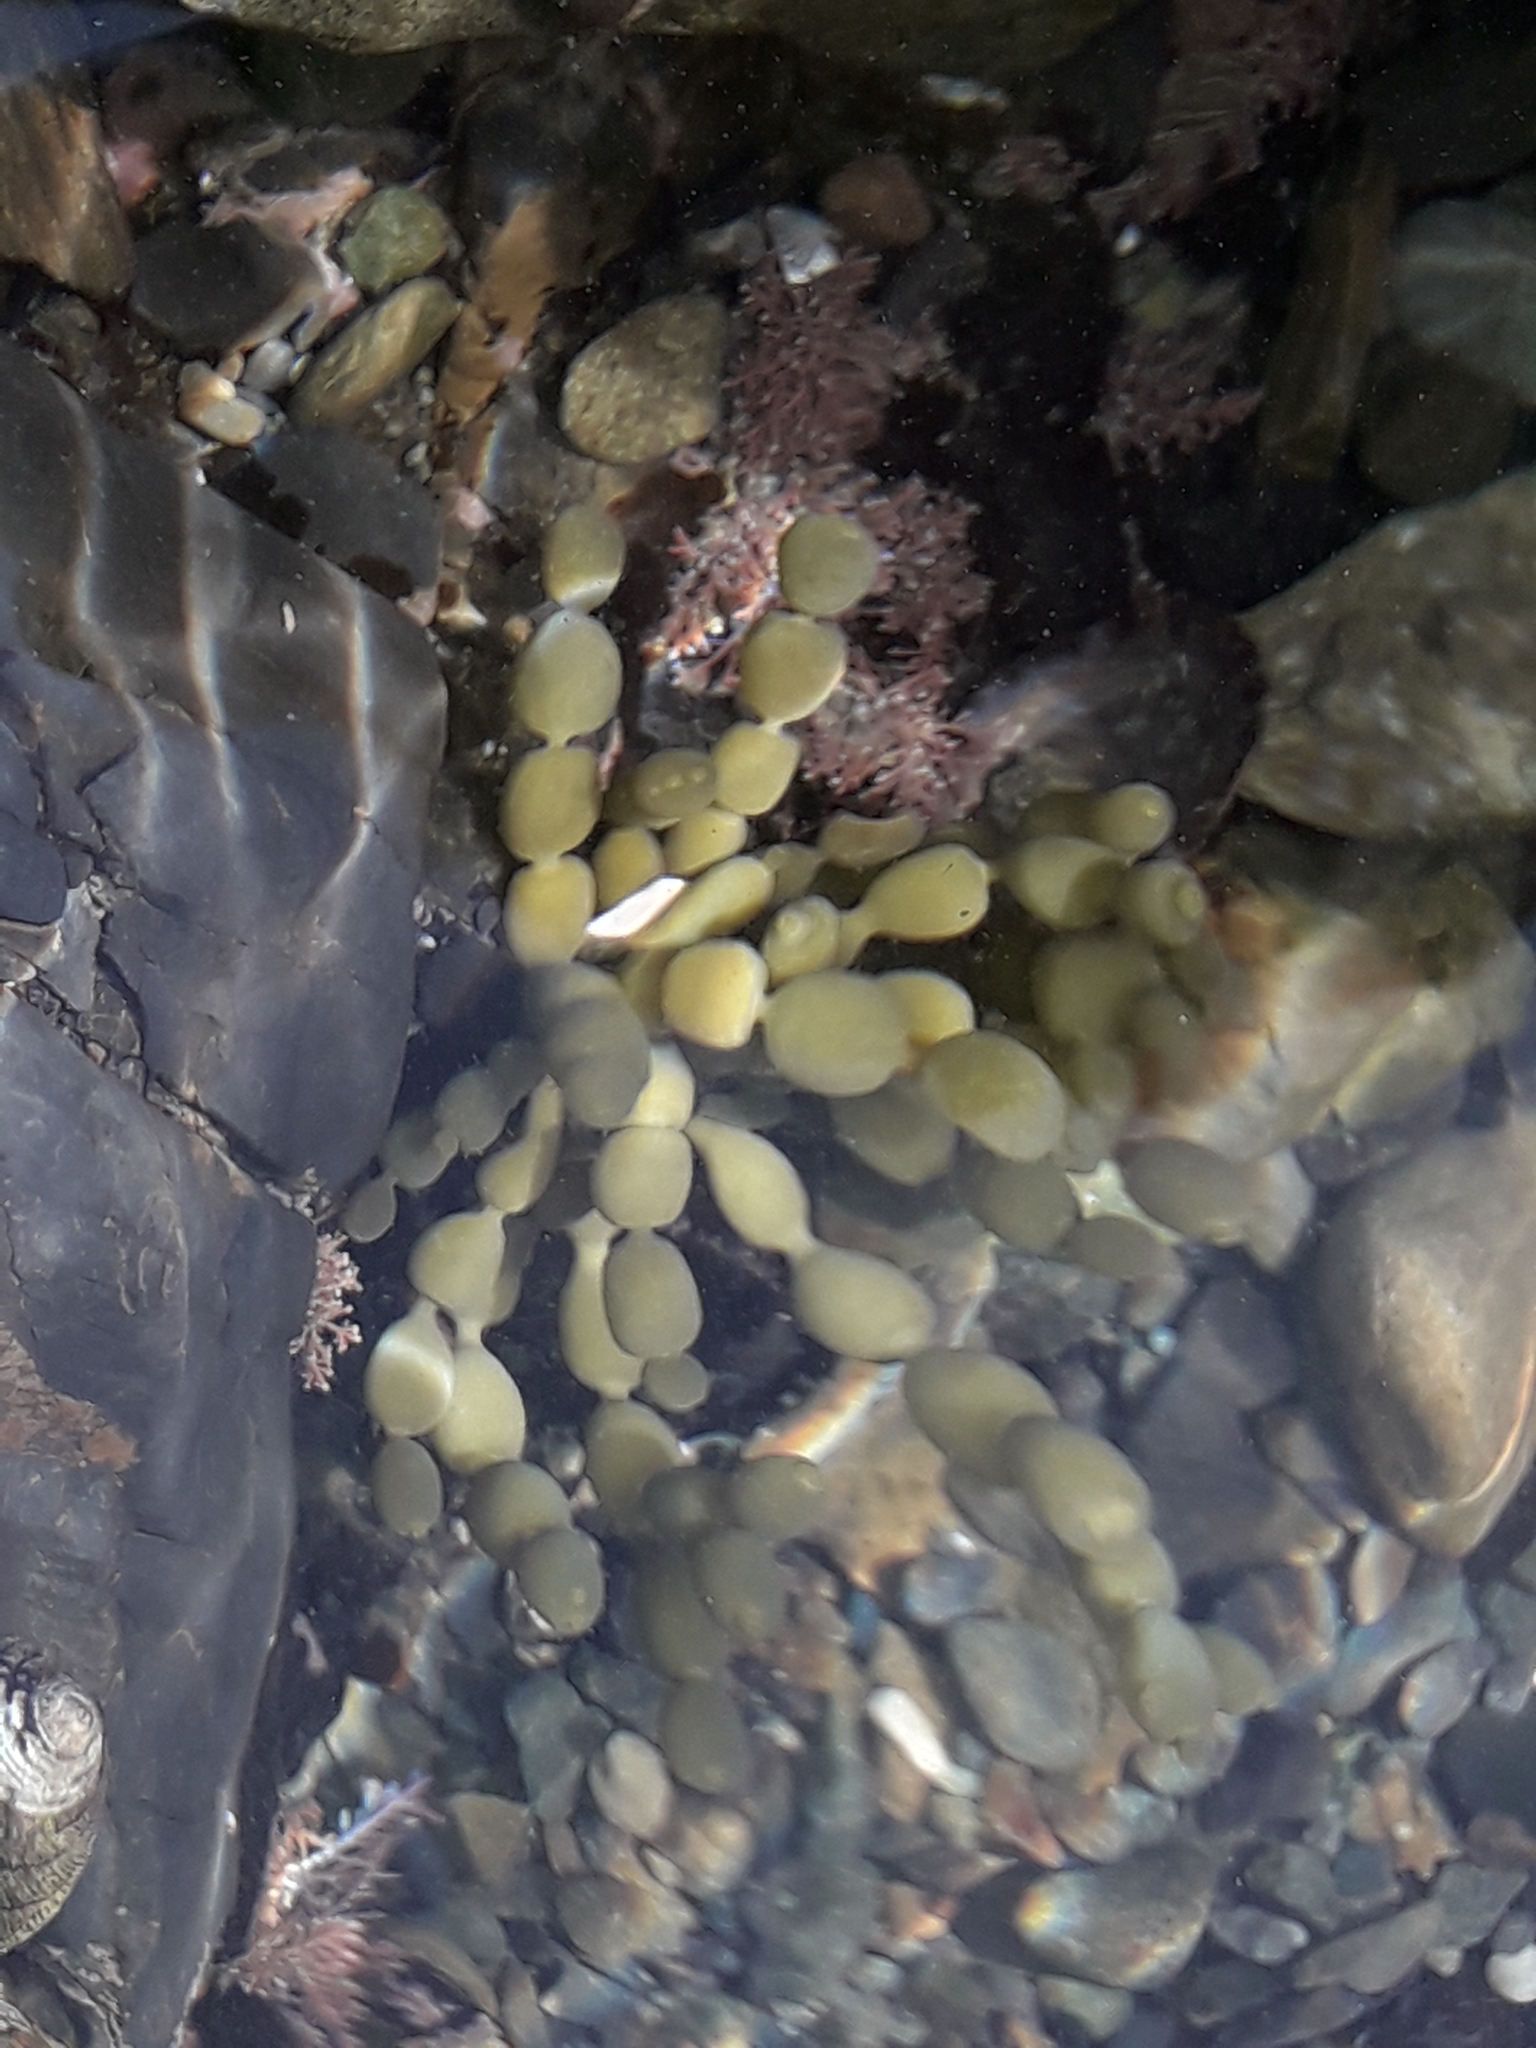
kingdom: Chromista
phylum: Ochrophyta
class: Phaeophyceae
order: Fucales
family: Hormosiraceae
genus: Hormosira
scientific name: Hormosira banksii
